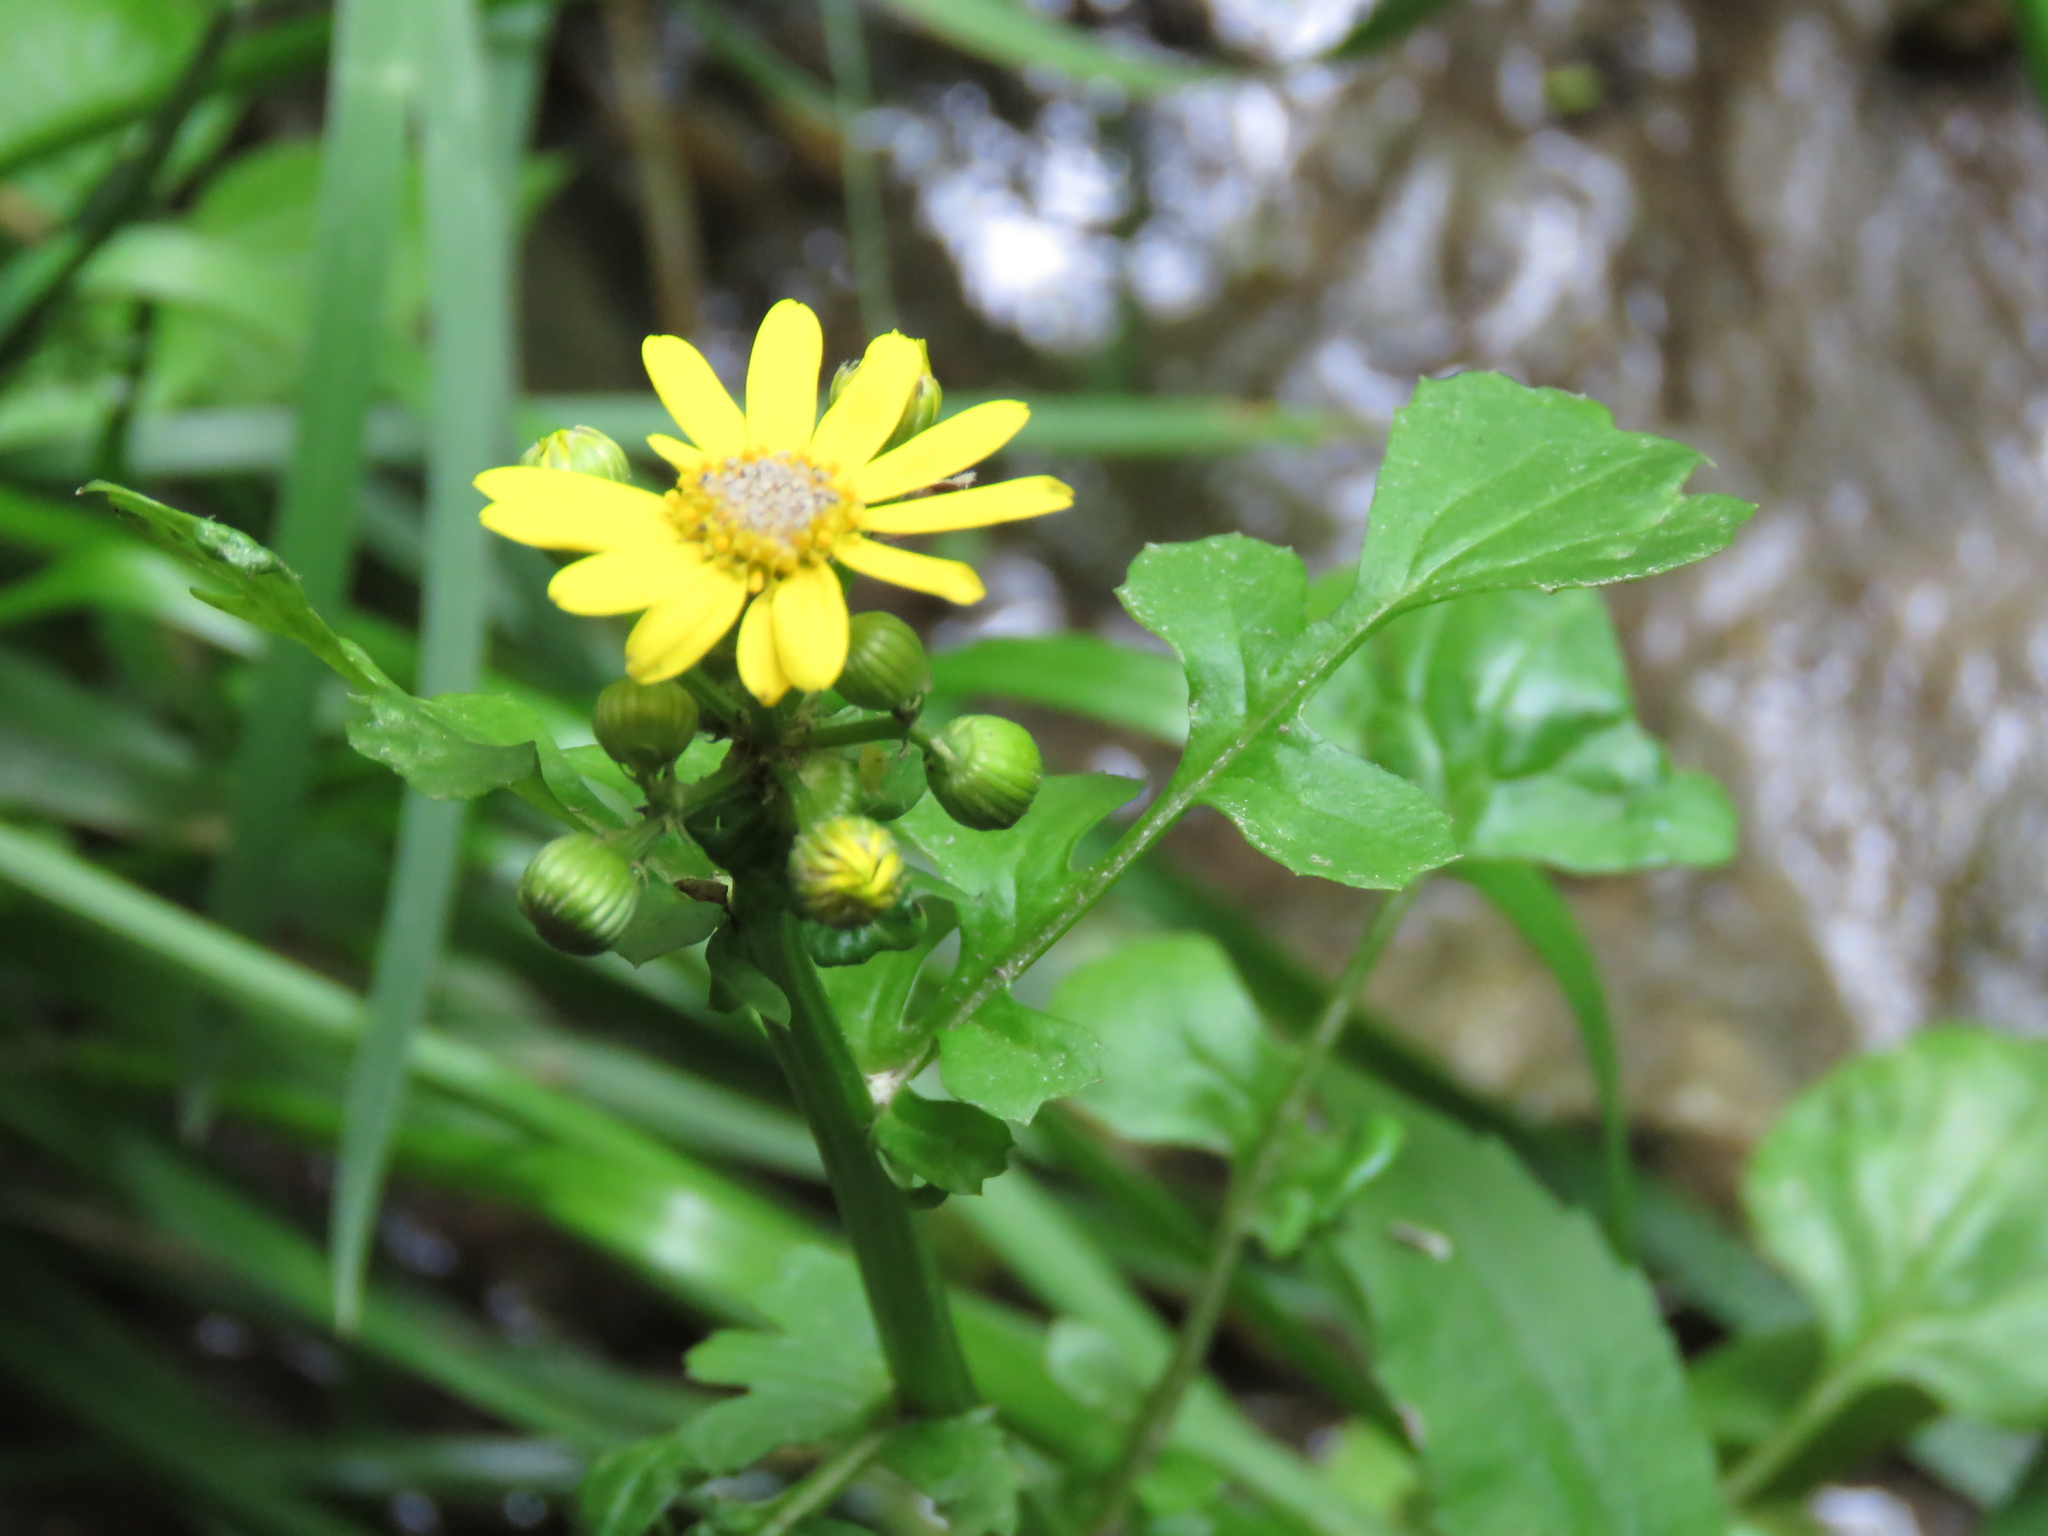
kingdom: Plantae
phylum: Tracheophyta
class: Magnoliopsida
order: Asterales
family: Asteraceae
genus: Packera
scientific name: Packera glabella
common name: Butterweed
